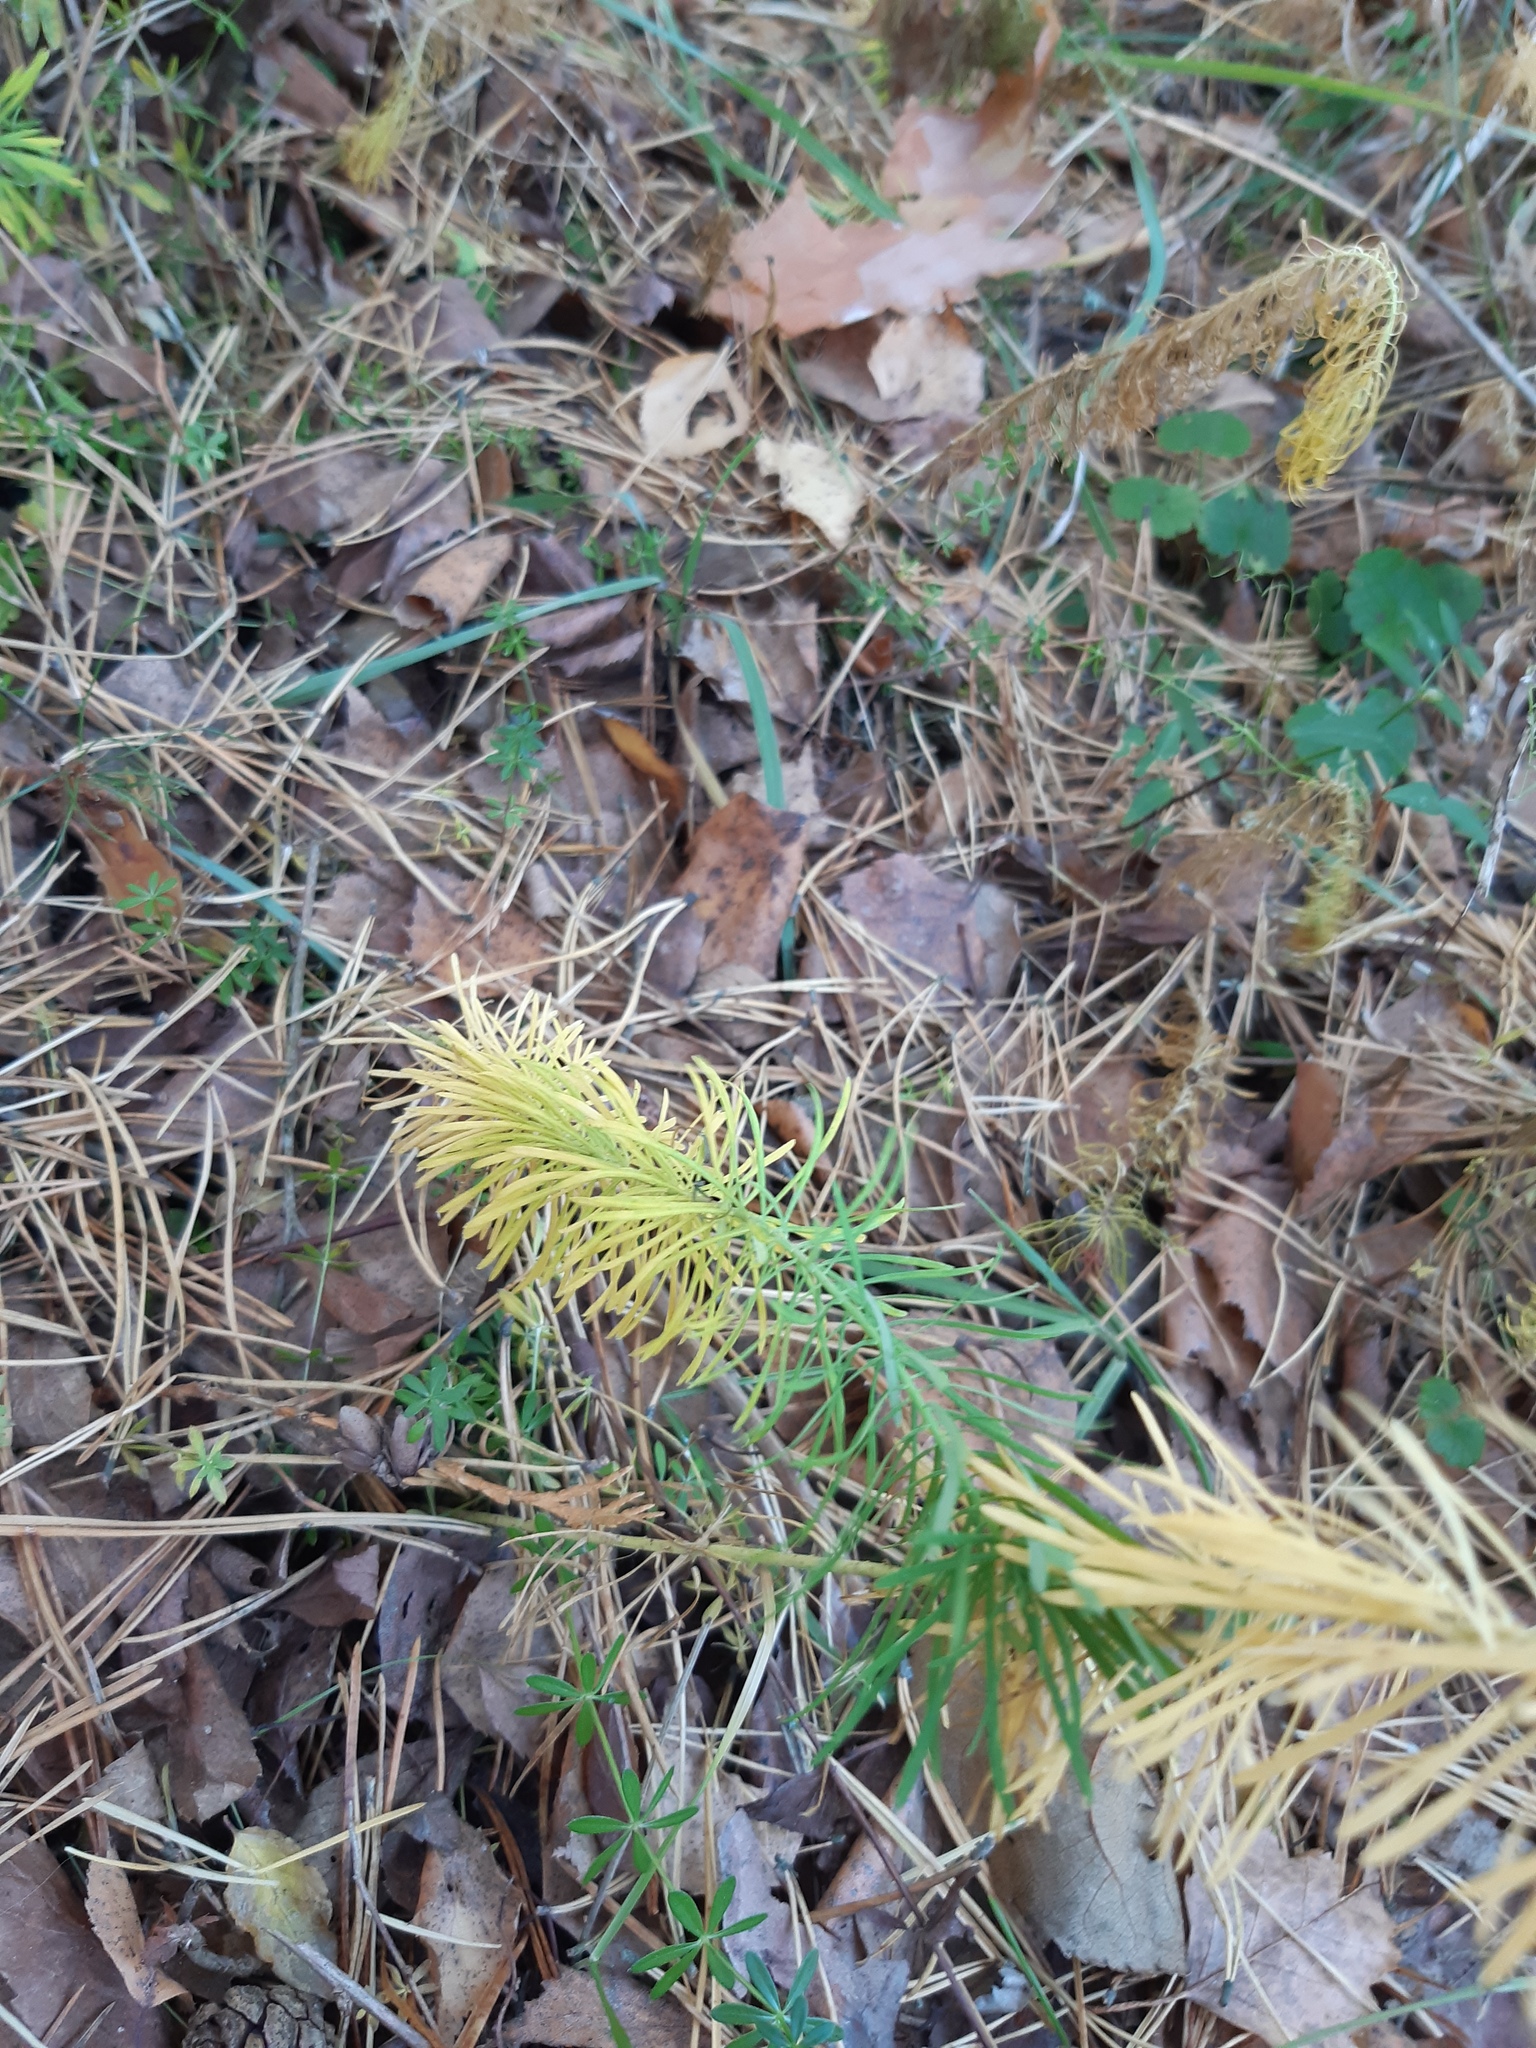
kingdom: Plantae
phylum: Tracheophyta
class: Magnoliopsida
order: Malpighiales
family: Euphorbiaceae
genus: Euphorbia
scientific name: Euphorbia virgata
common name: Leafy spurge
